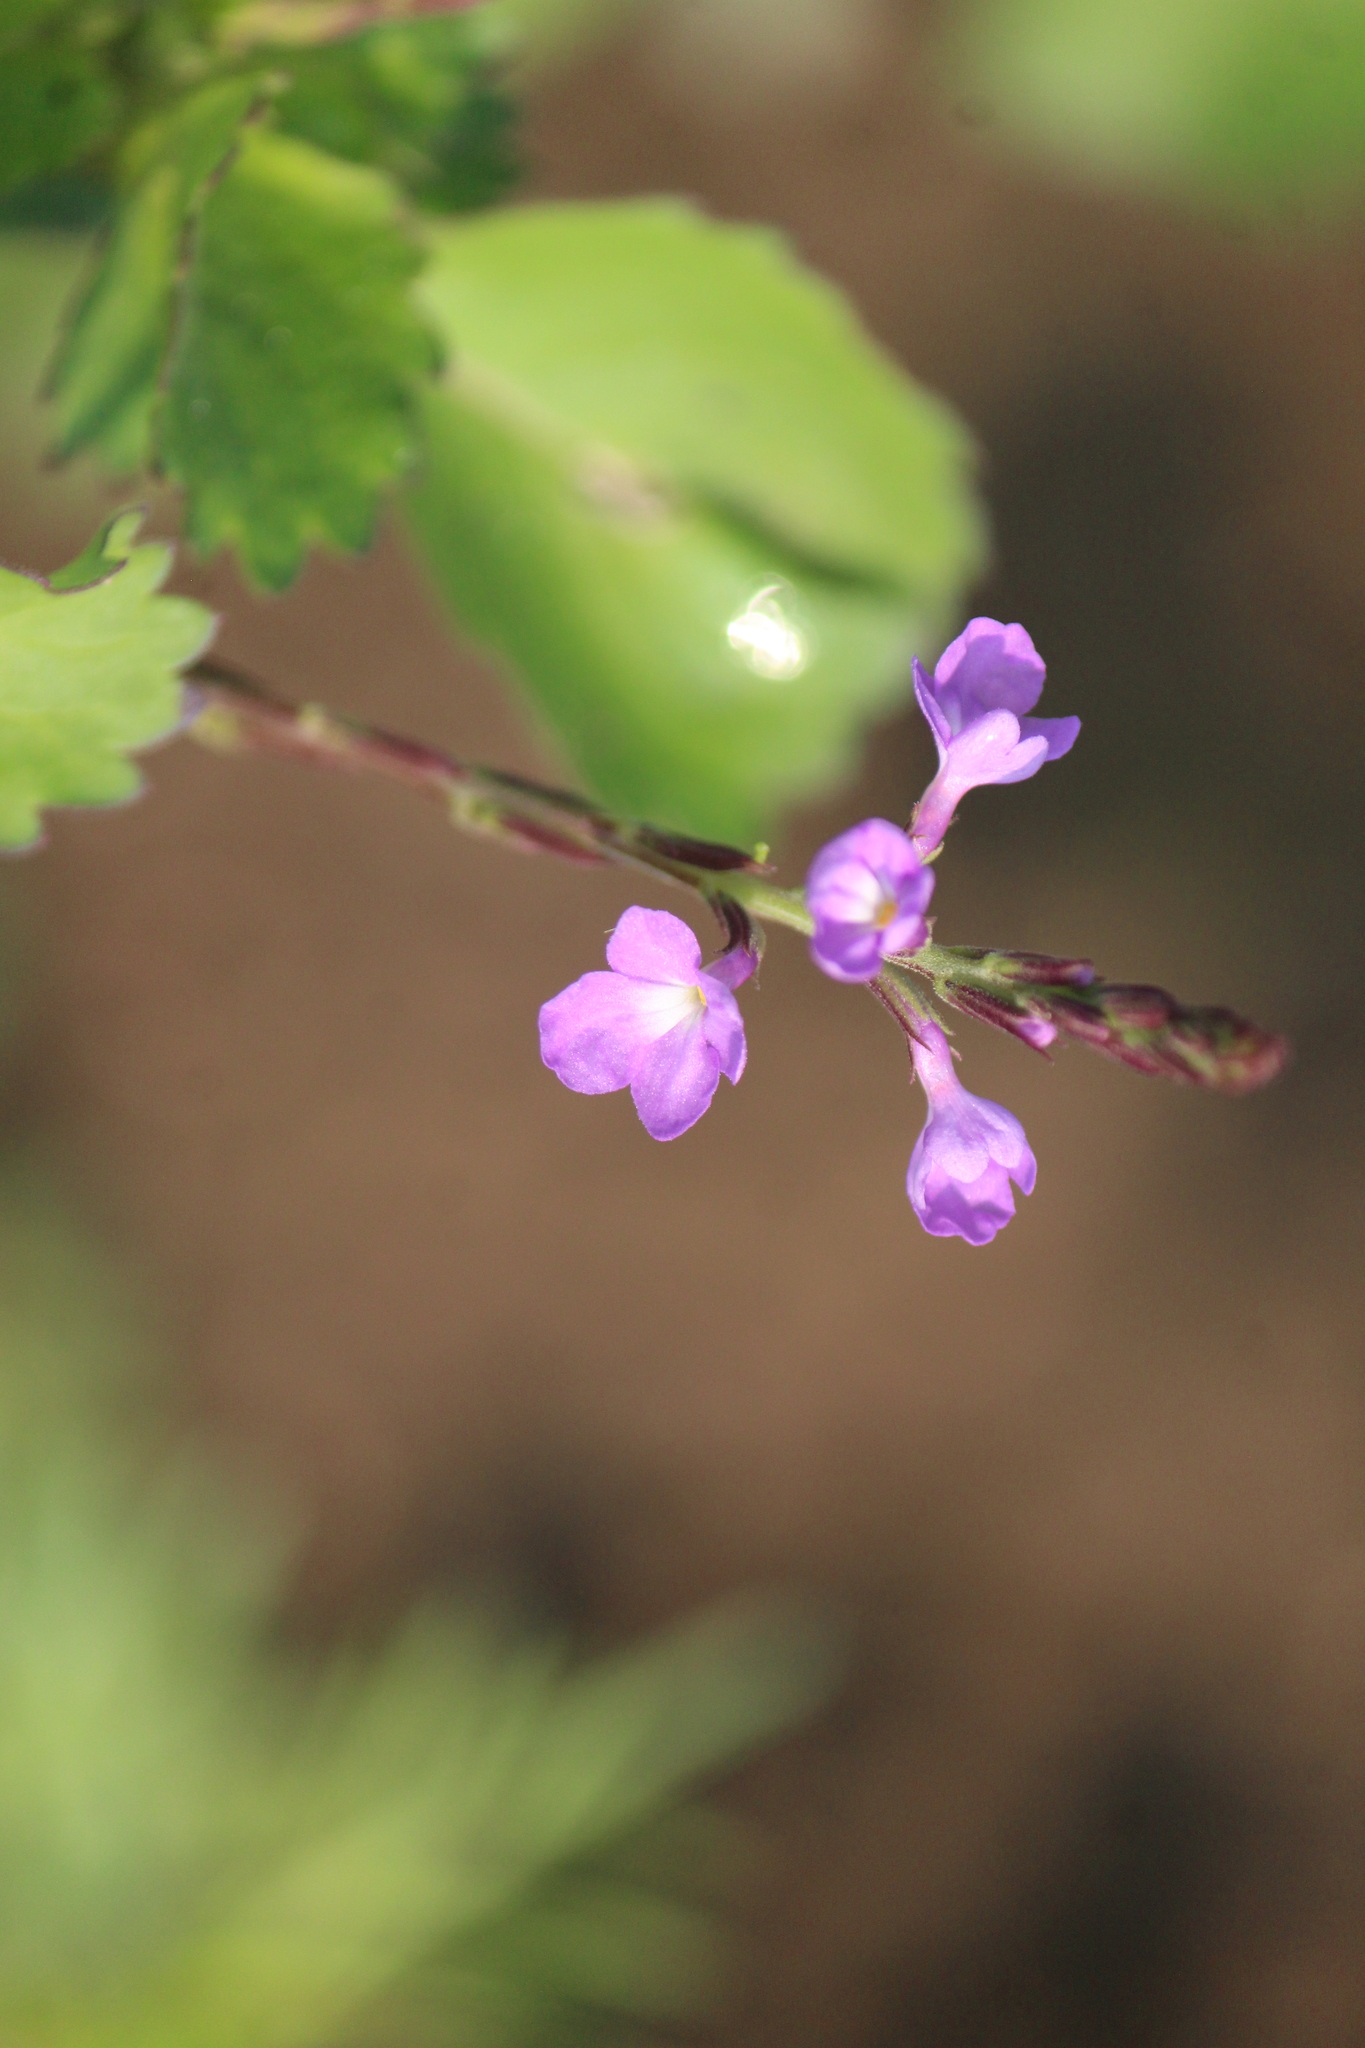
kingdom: Plantae
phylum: Tracheophyta
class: Magnoliopsida
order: Lamiales
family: Verbenaceae
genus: Bouchea
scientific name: Bouchea prismatica
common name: Vervine
